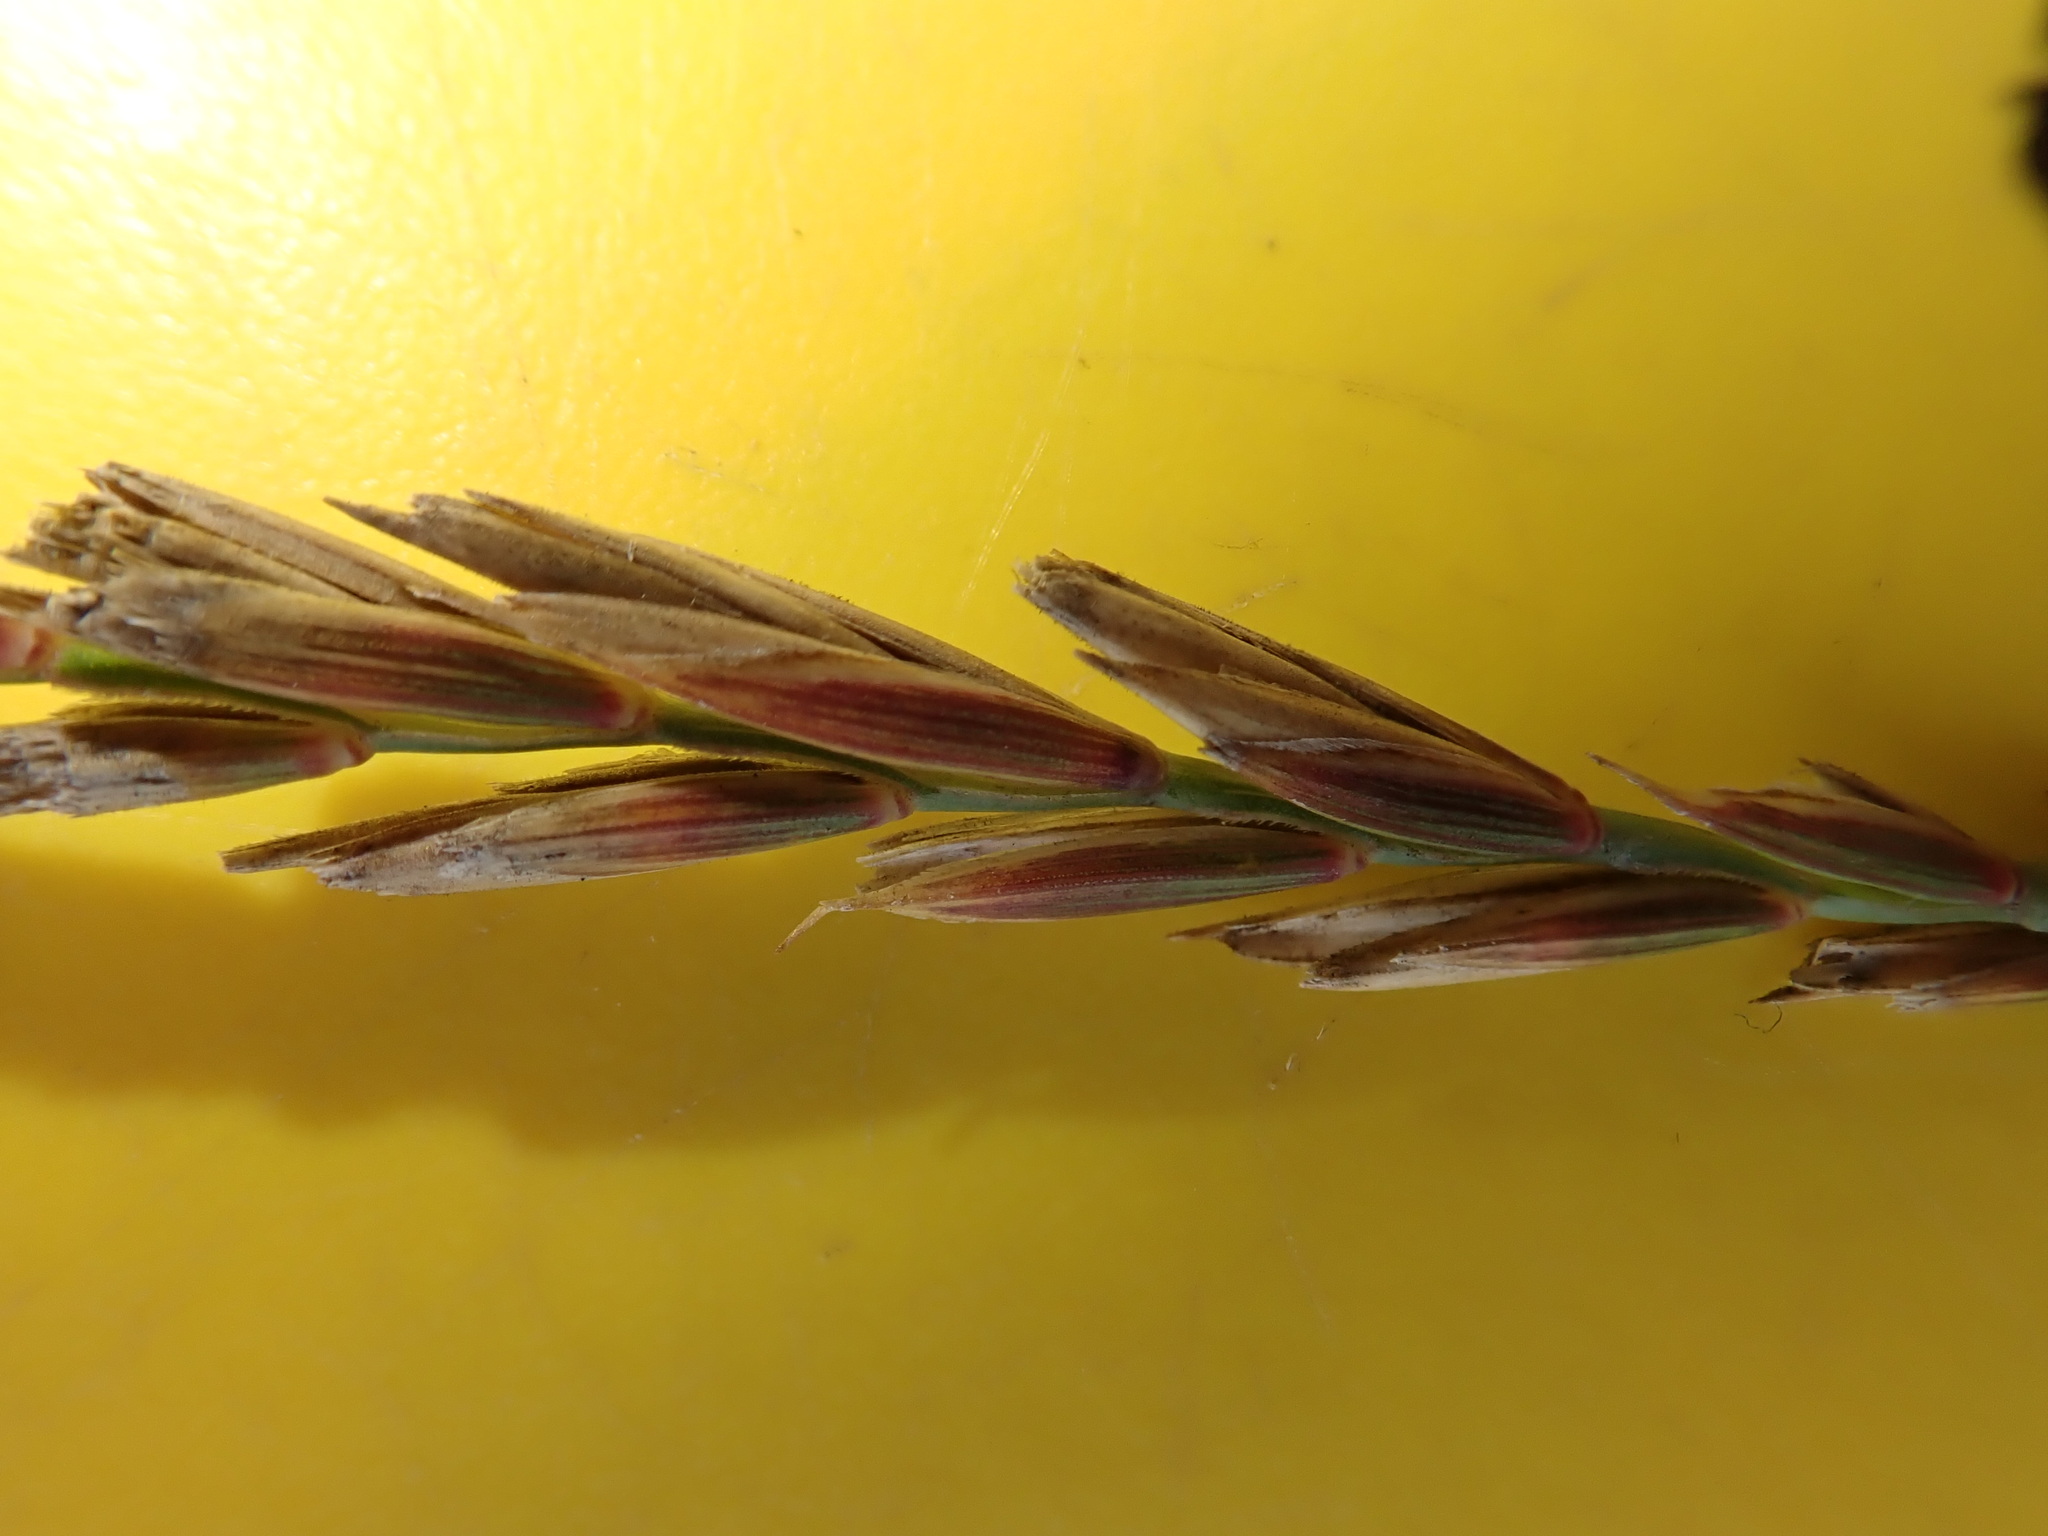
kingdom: Plantae
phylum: Tracheophyta
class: Liliopsida
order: Poales
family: Poaceae
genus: Elymus
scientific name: Elymus repens
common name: Quackgrass
